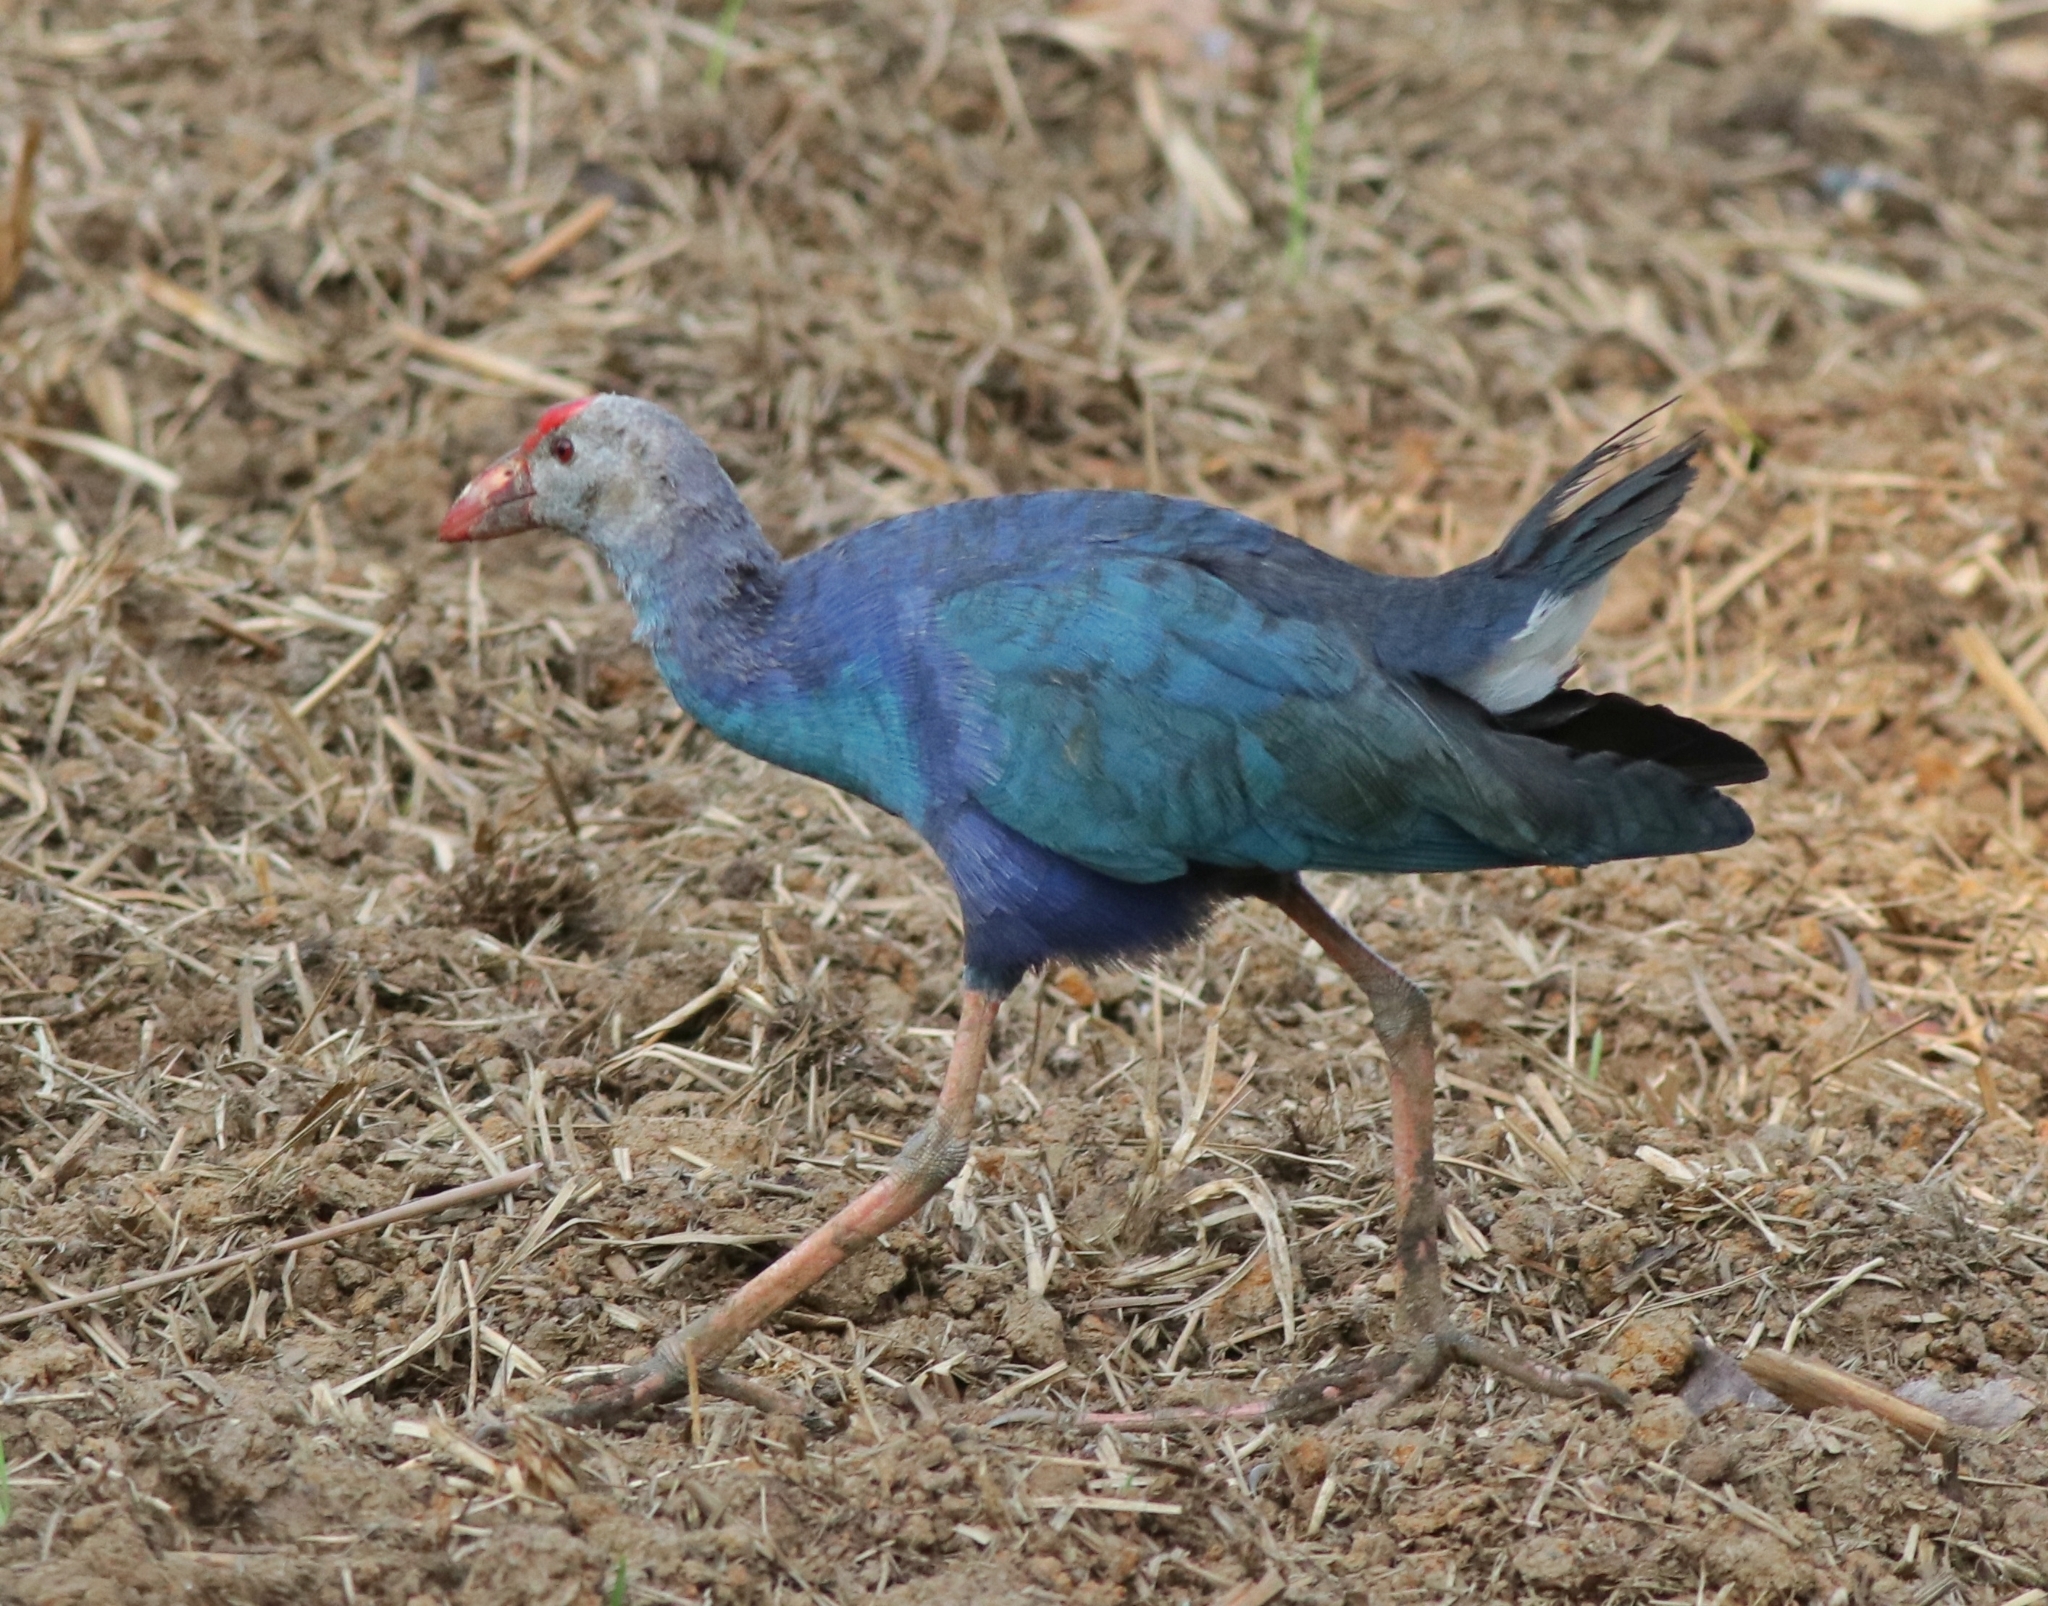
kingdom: Animalia
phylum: Chordata
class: Aves
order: Gruiformes
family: Rallidae
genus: Porphyrio
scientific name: Porphyrio porphyrio
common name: Purple swamphen
